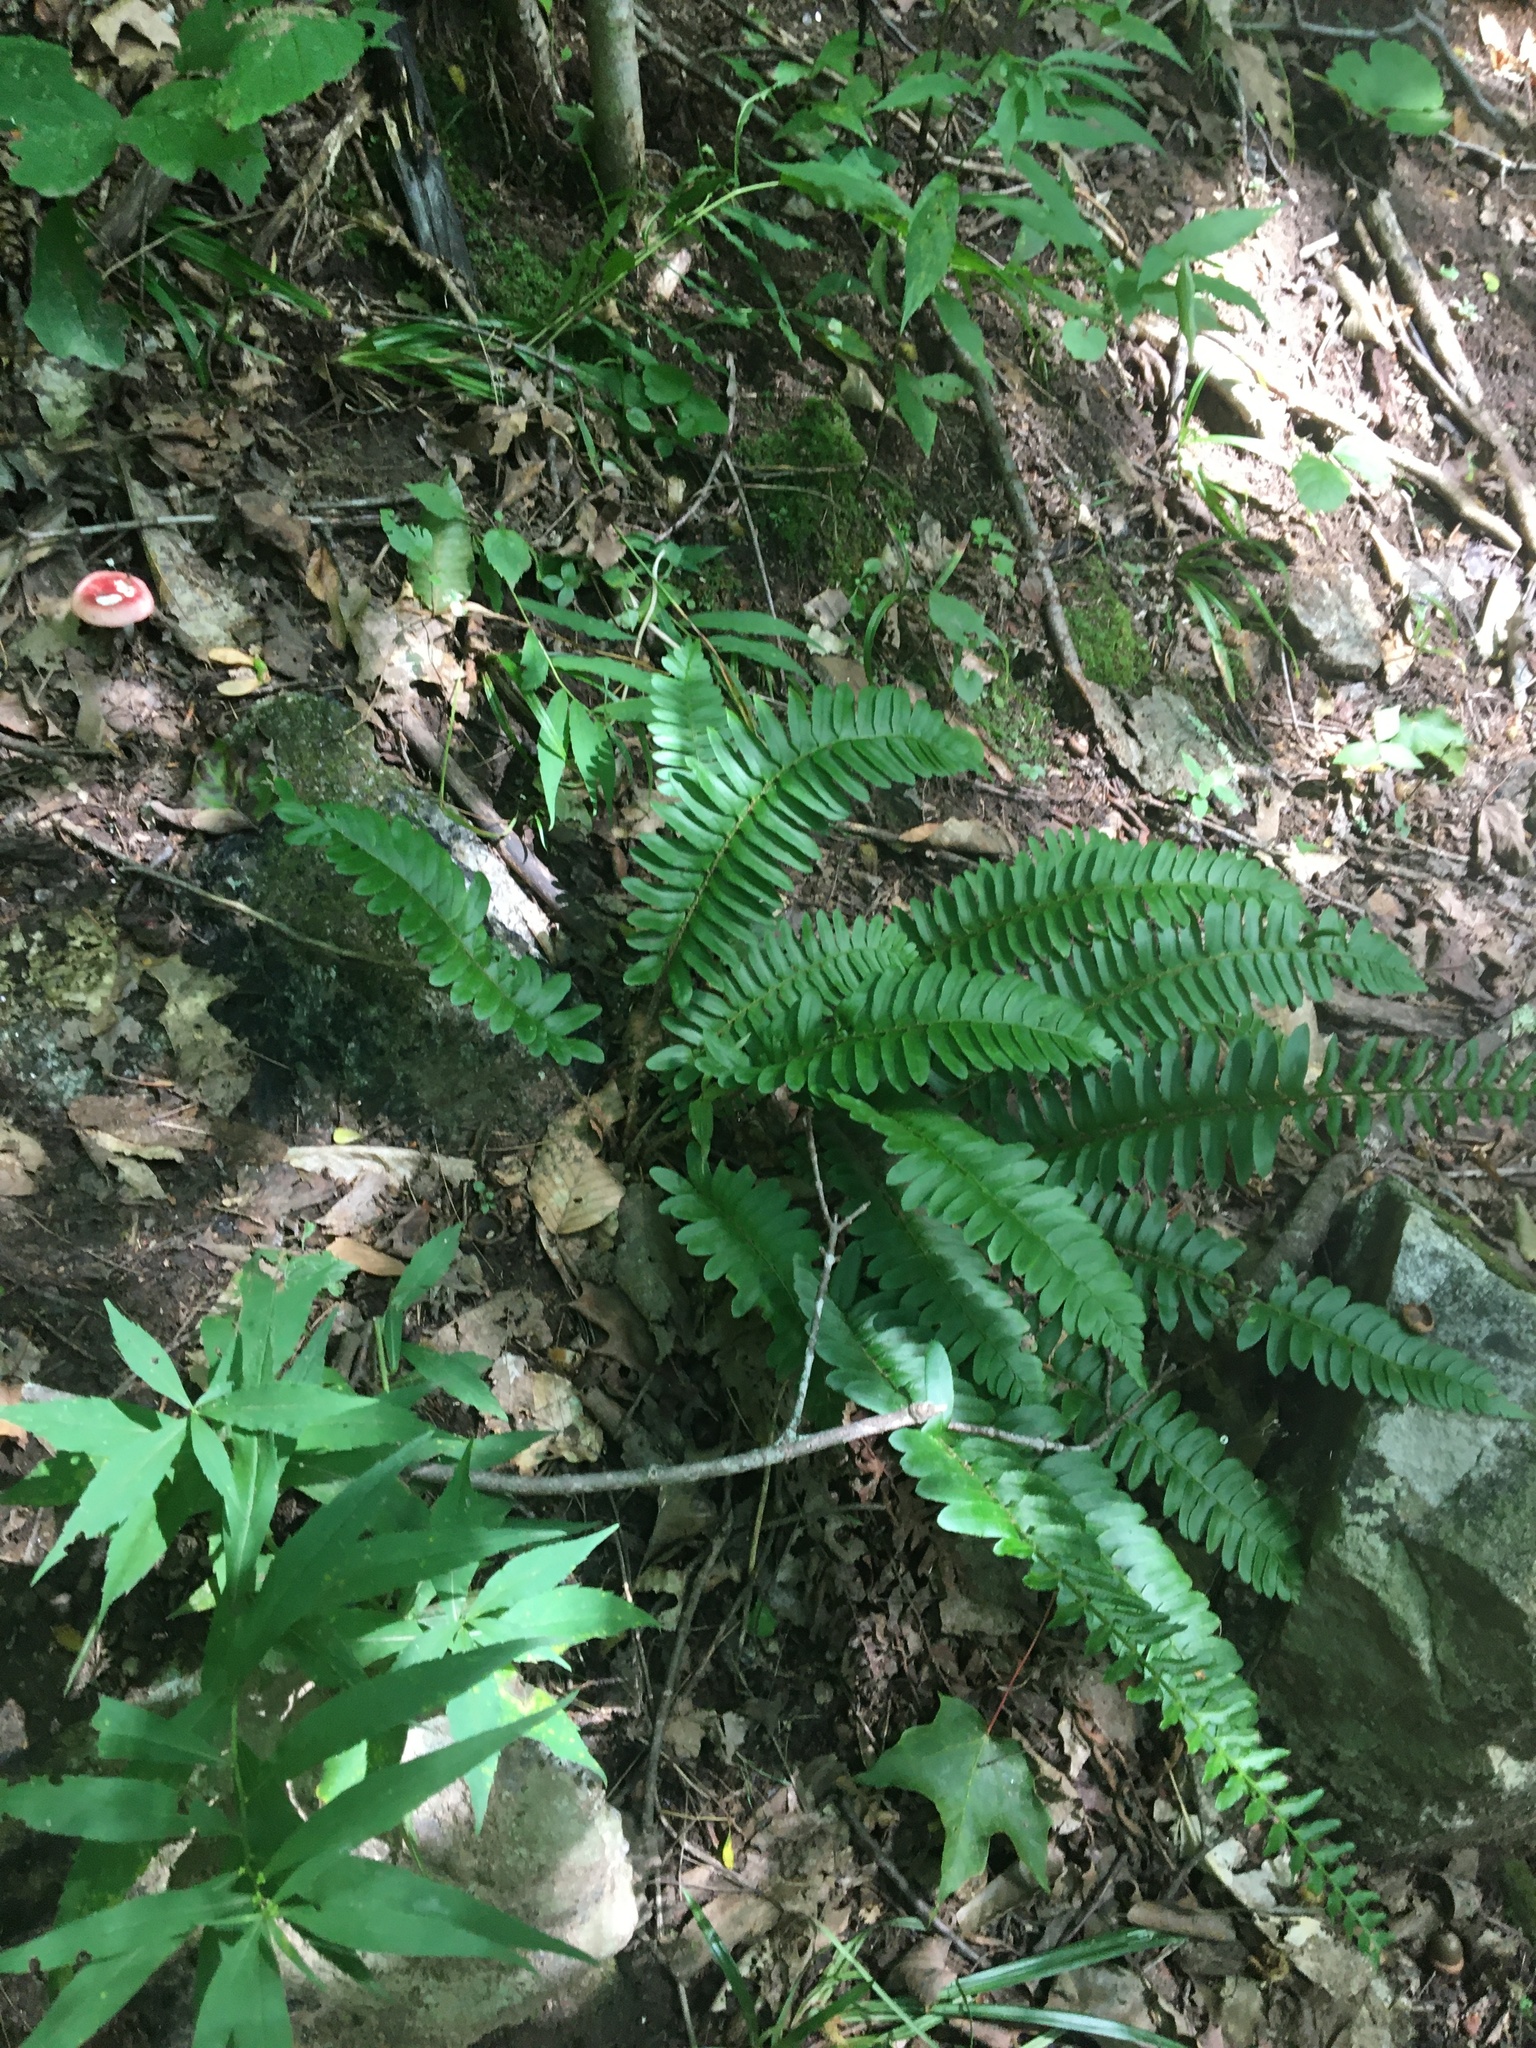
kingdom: Plantae
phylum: Tracheophyta
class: Polypodiopsida
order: Polypodiales
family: Dryopteridaceae
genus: Polystichum
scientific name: Polystichum acrostichoides
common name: Christmas fern
